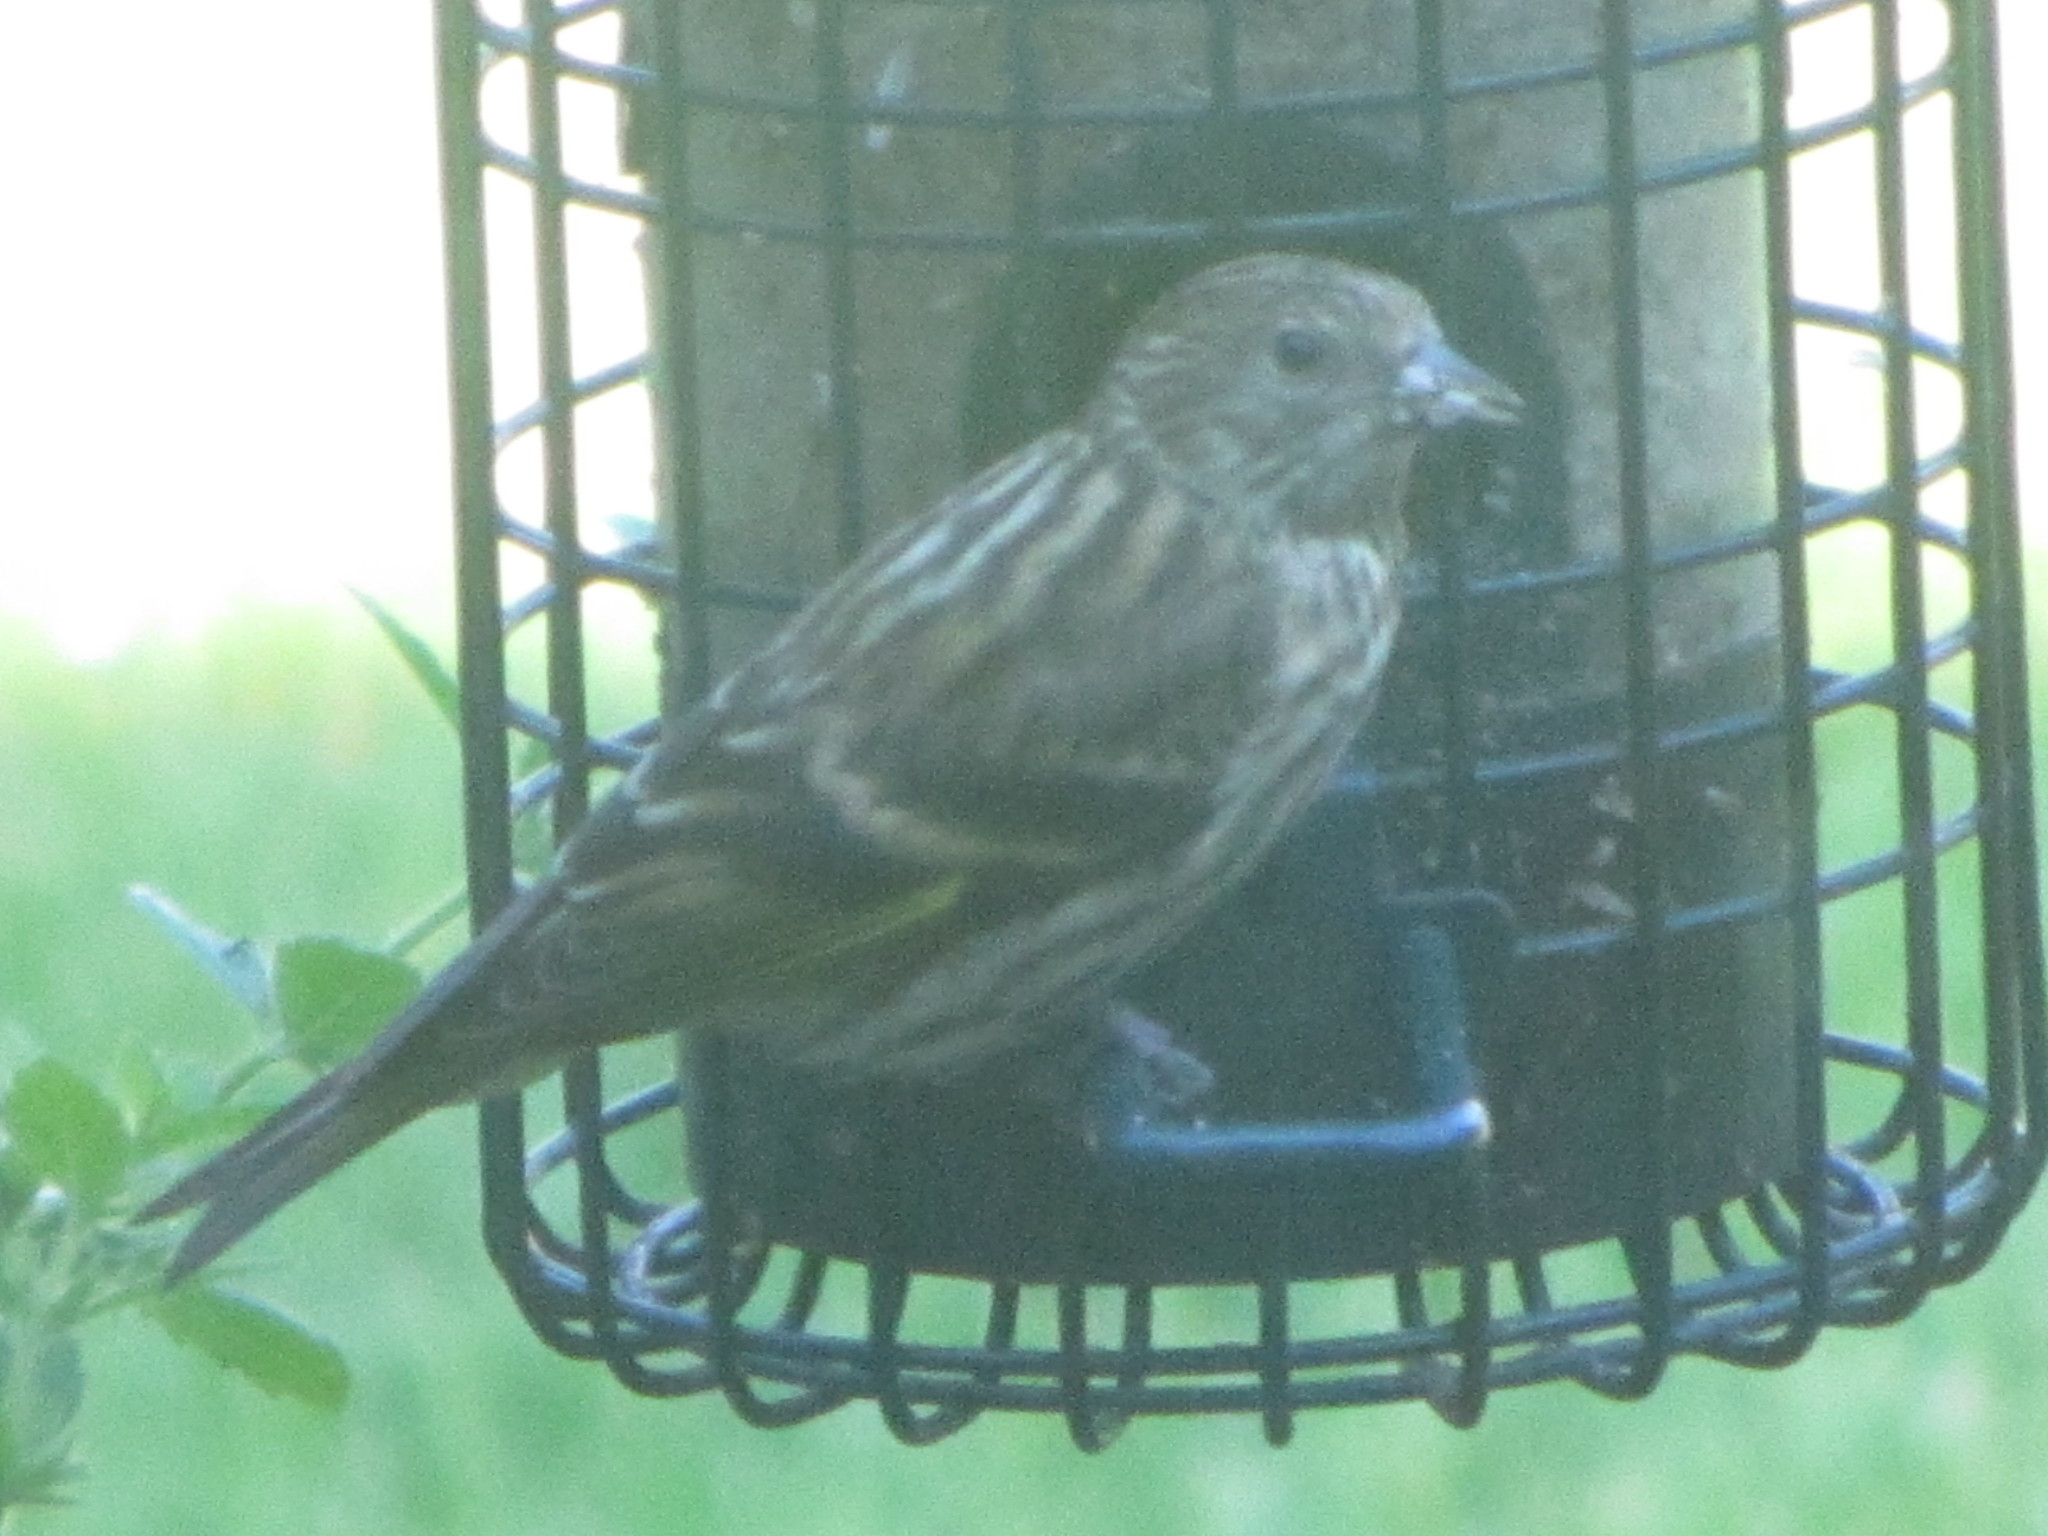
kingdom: Animalia
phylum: Chordata
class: Aves
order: Passeriformes
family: Fringillidae
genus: Spinus
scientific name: Spinus pinus
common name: Pine siskin
